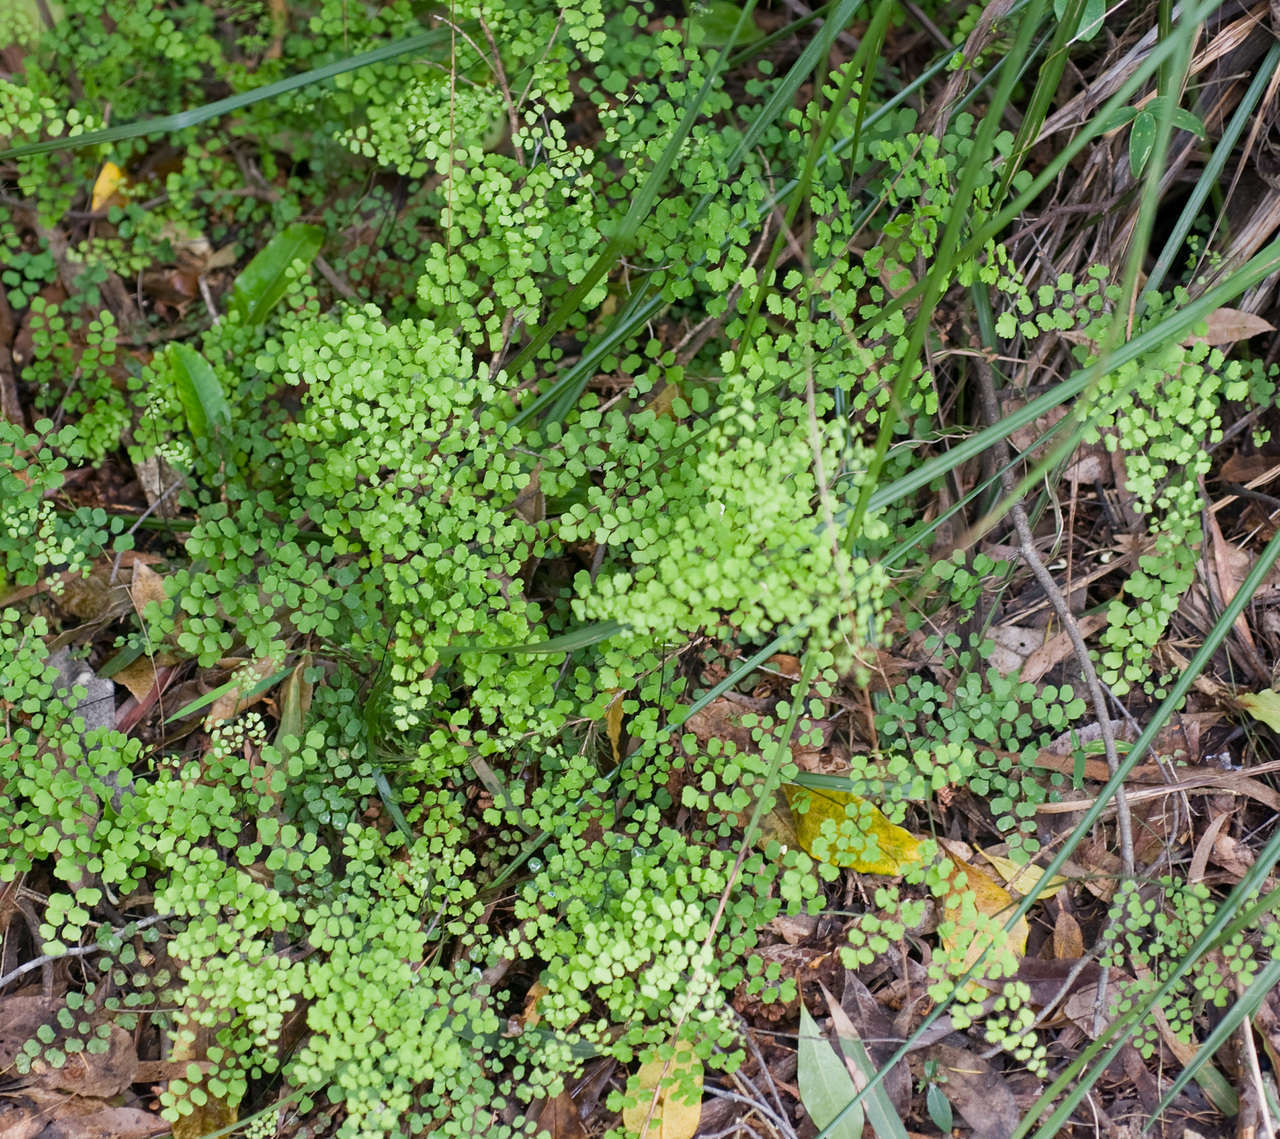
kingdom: Plantae
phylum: Tracheophyta
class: Polypodiopsida
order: Polypodiales
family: Pteridaceae
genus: Adiantum
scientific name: Adiantum aethiopicum
